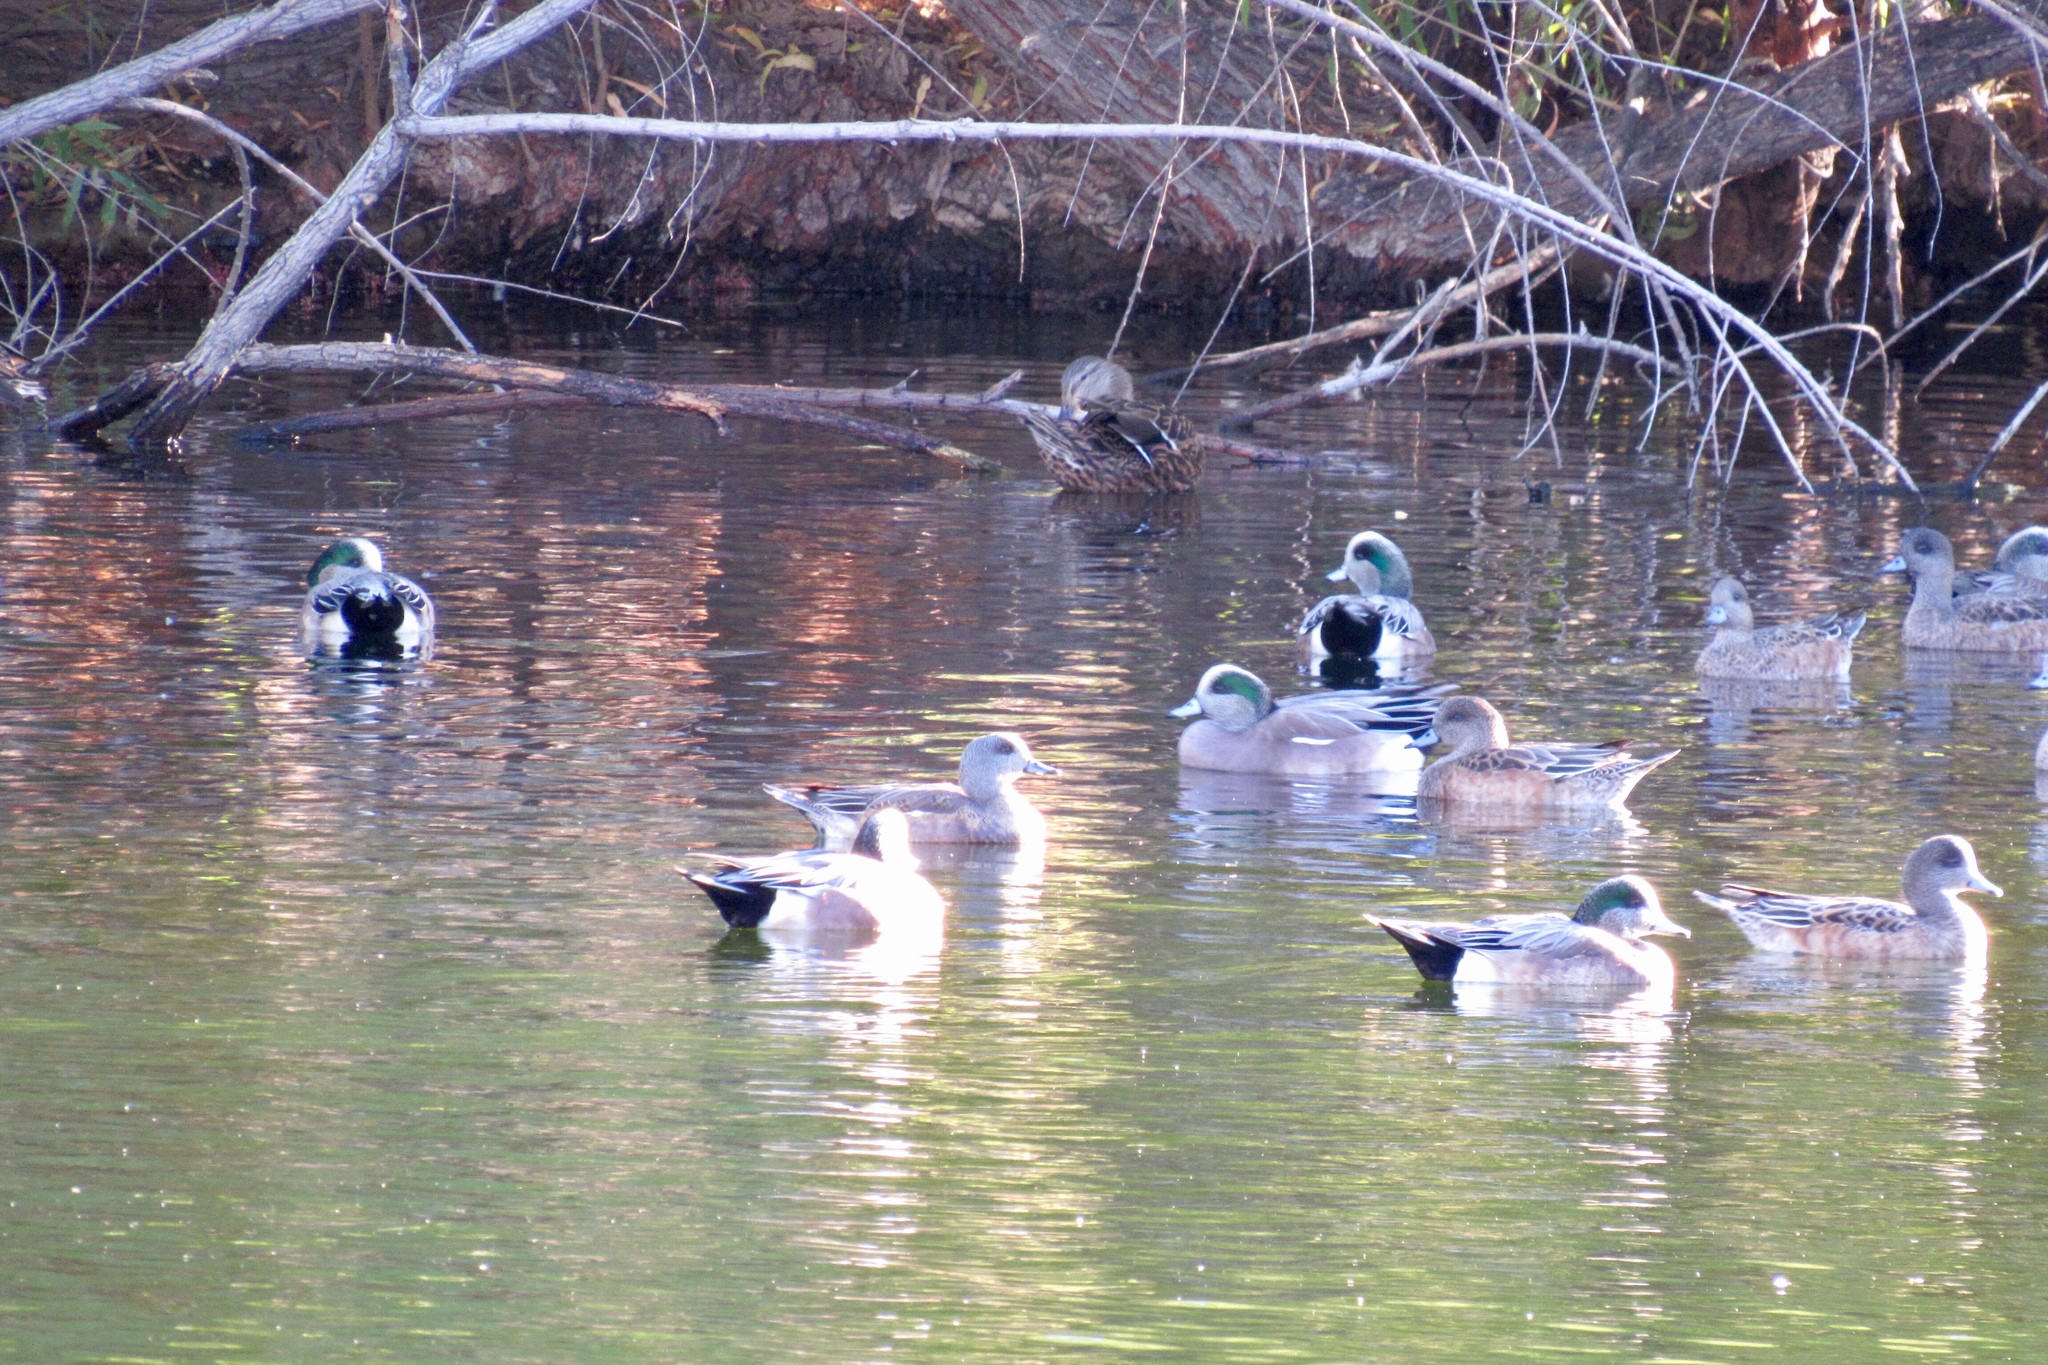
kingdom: Animalia
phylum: Chordata
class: Aves
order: Anseriformes
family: Anatidae
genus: Mareca
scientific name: Mareca americana
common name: American wigeon
